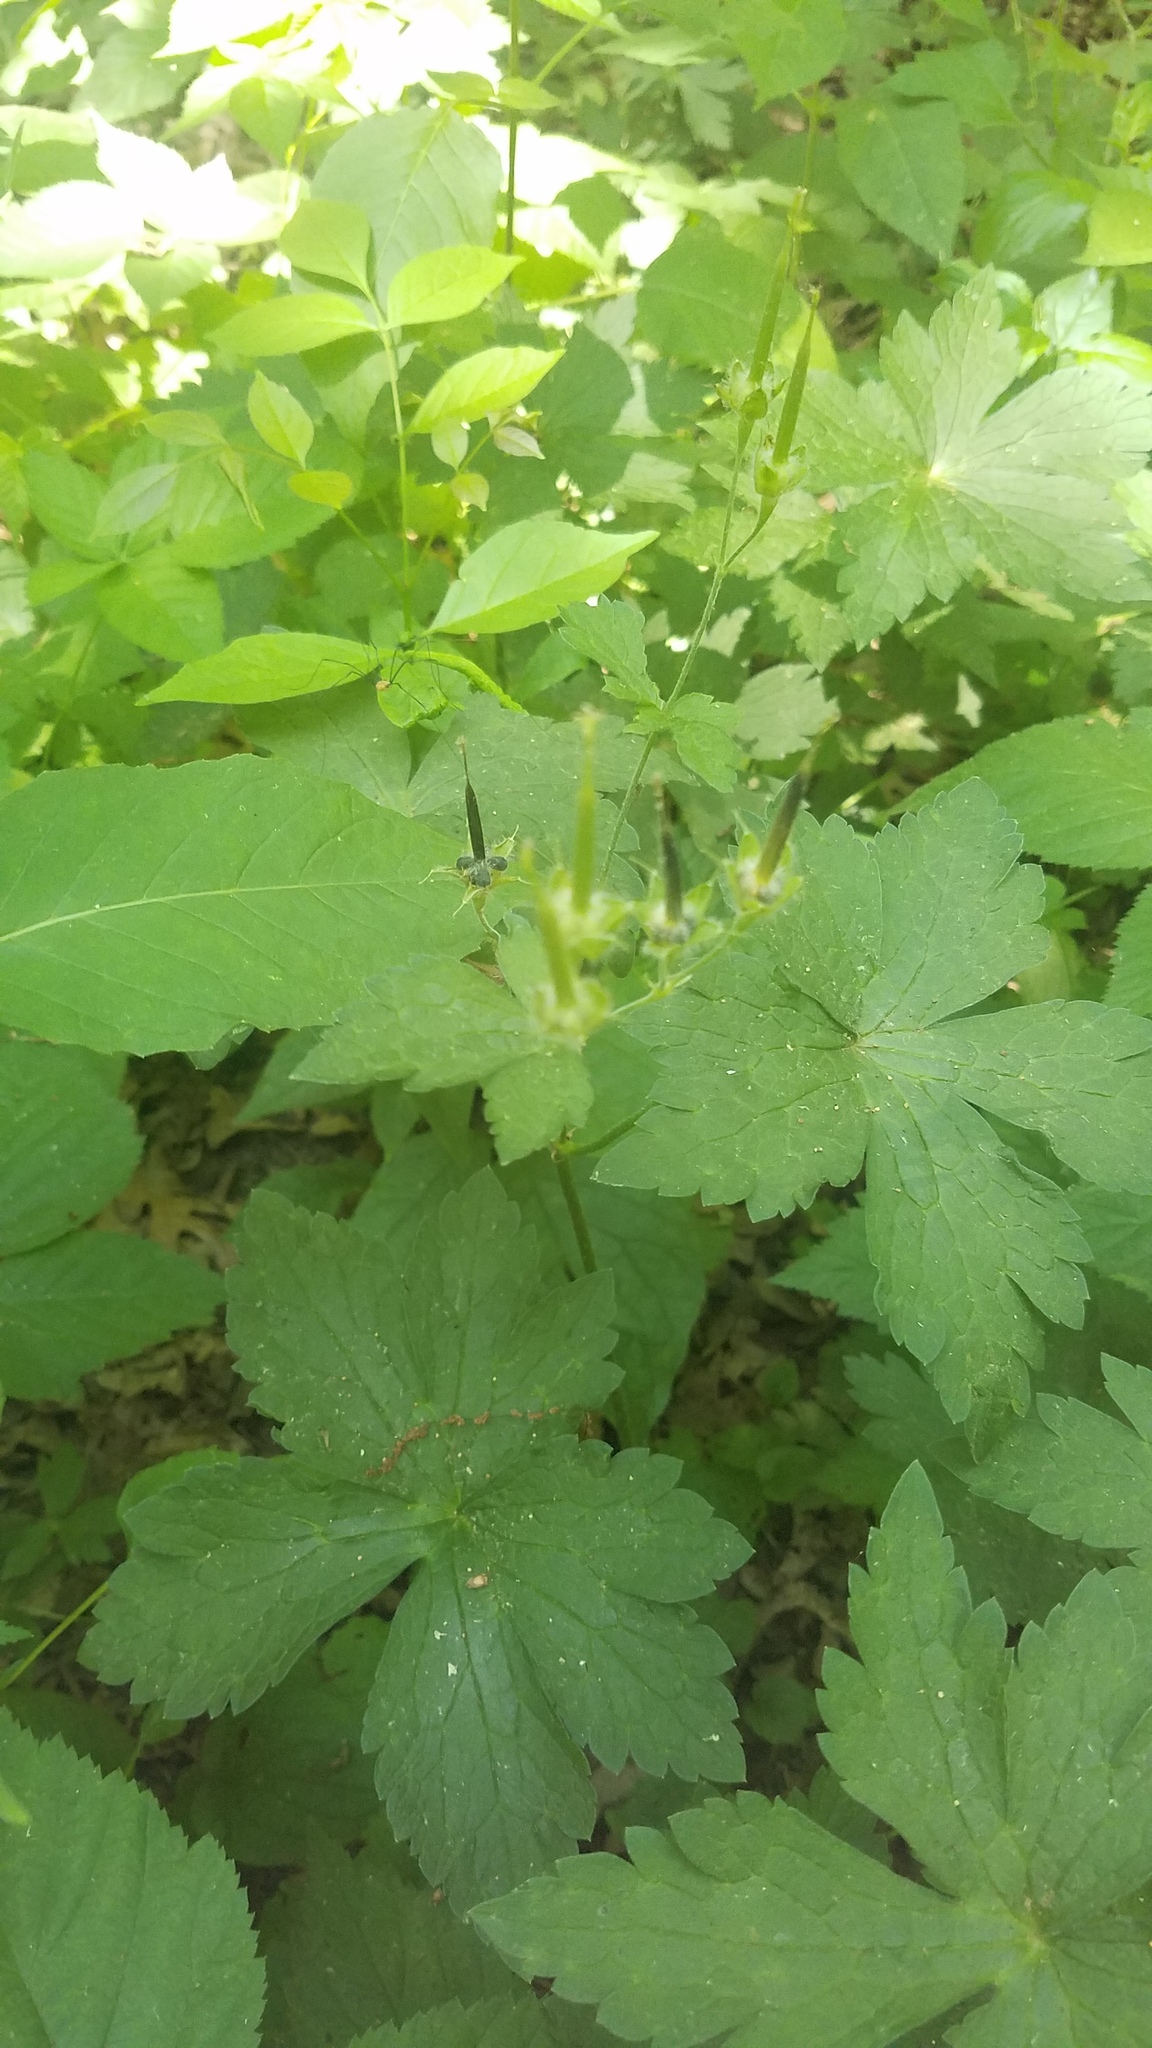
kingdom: Plantae
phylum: Tracheophyta
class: Magnoliopsida
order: Geraniales
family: Geraniaceae
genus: Geranium
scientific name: Geranium maculatum
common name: Spotted geranium
